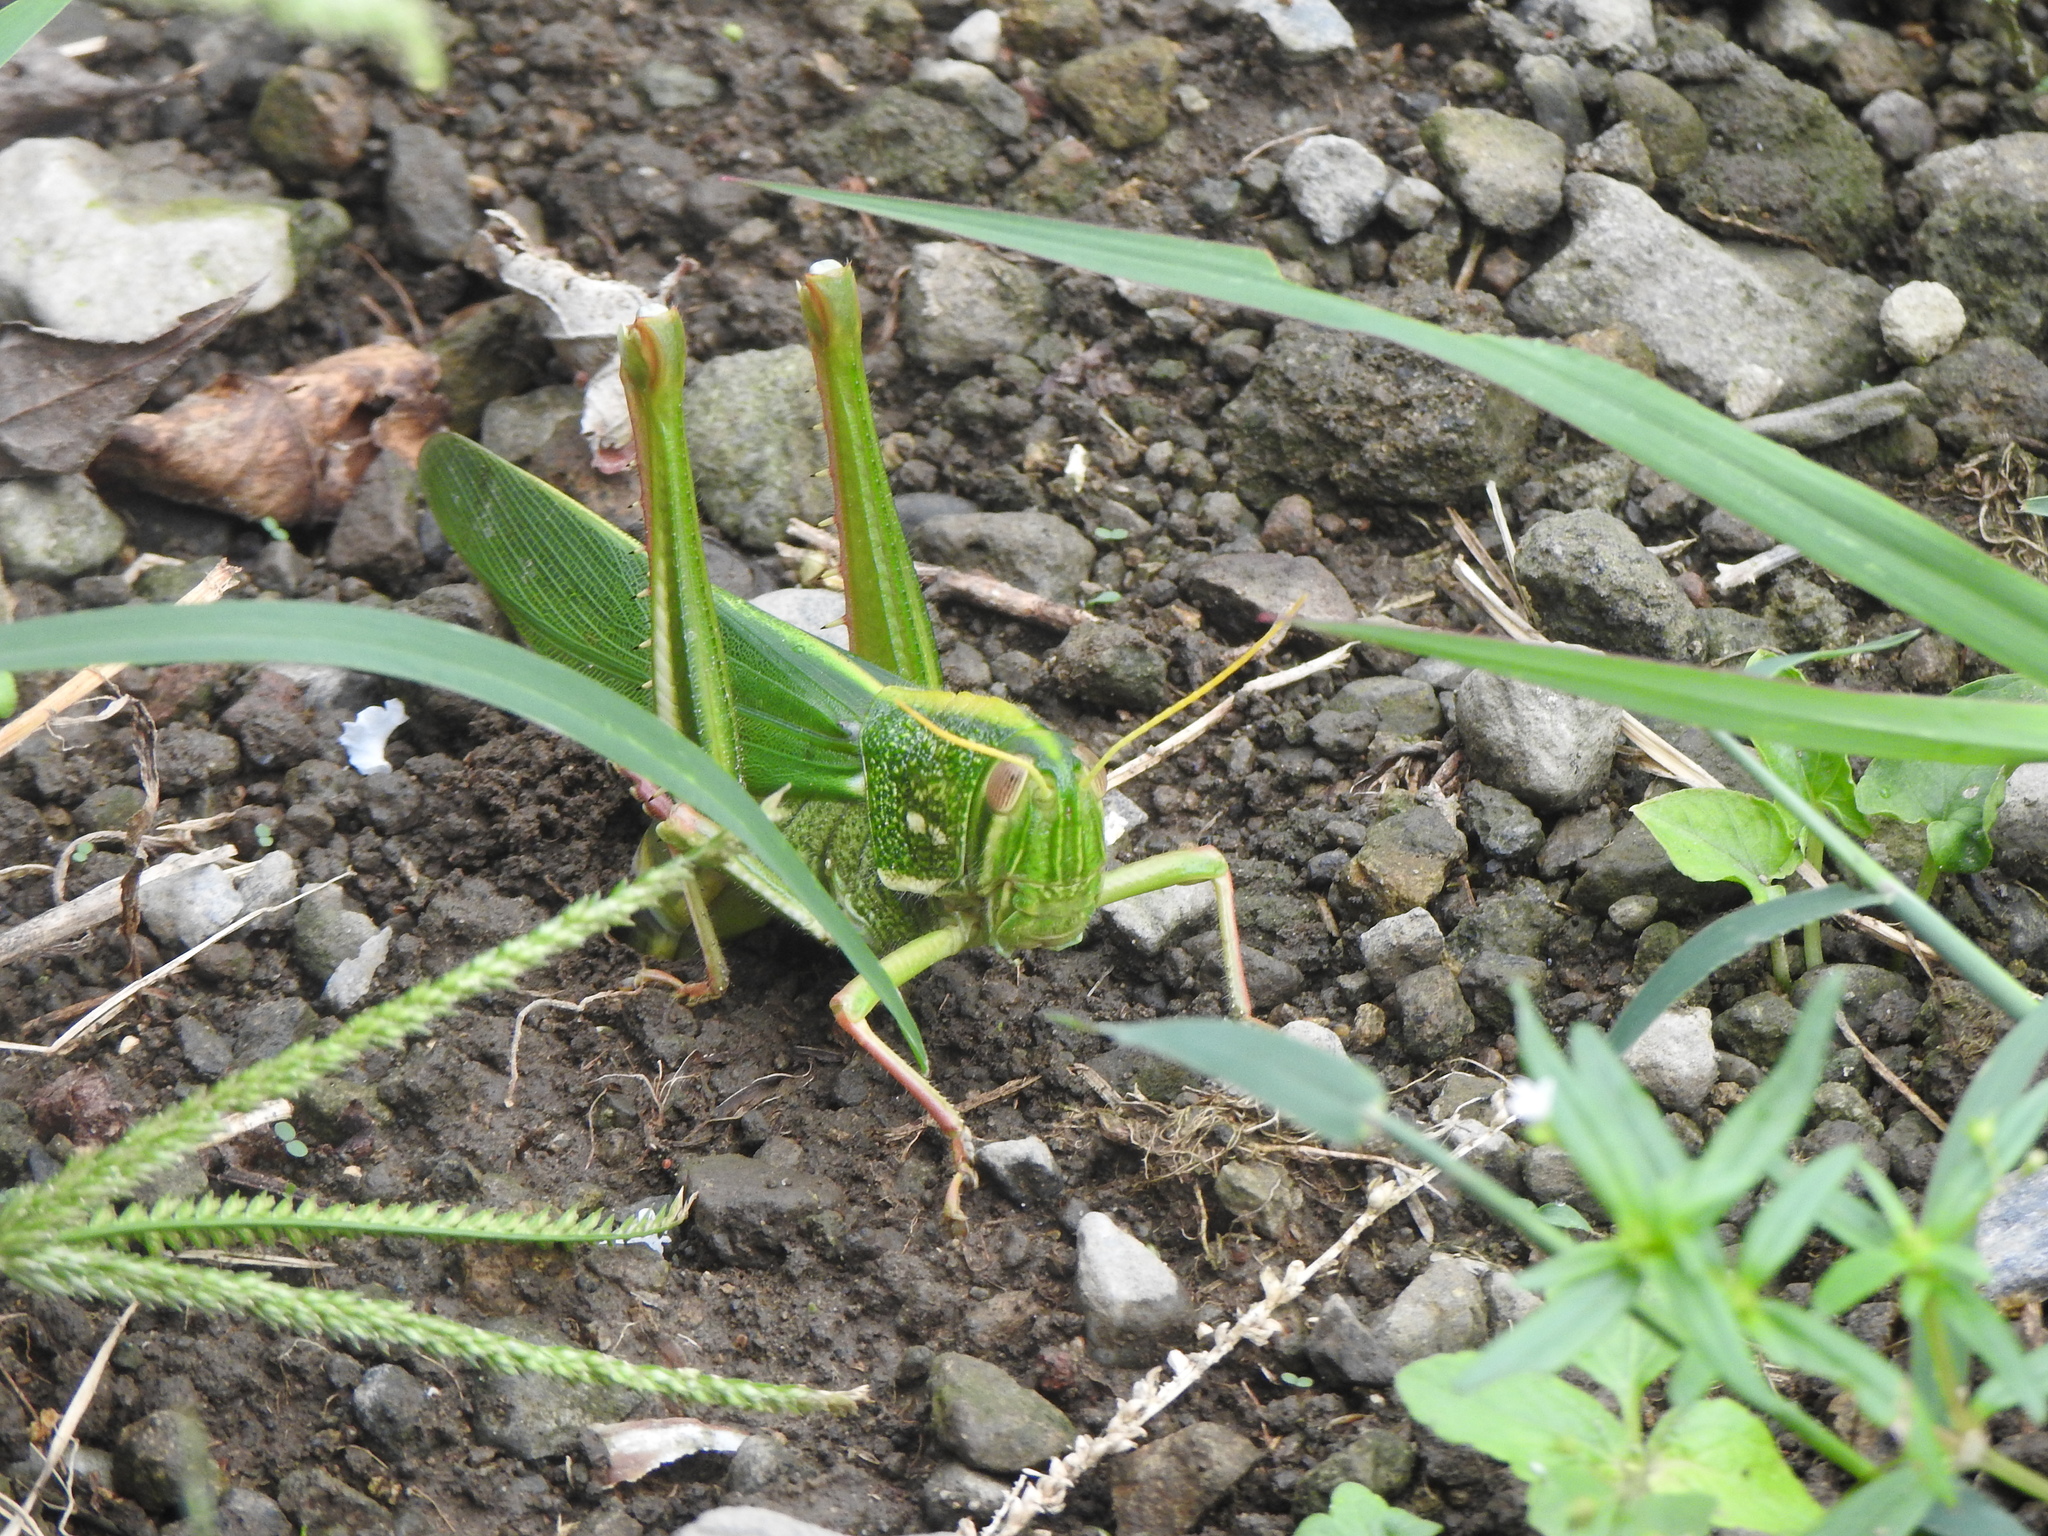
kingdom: Animalia
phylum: Arthropoda
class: Insecta
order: Orthoptera
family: Acrididae
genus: Chondracris
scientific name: Chondracris rosea
